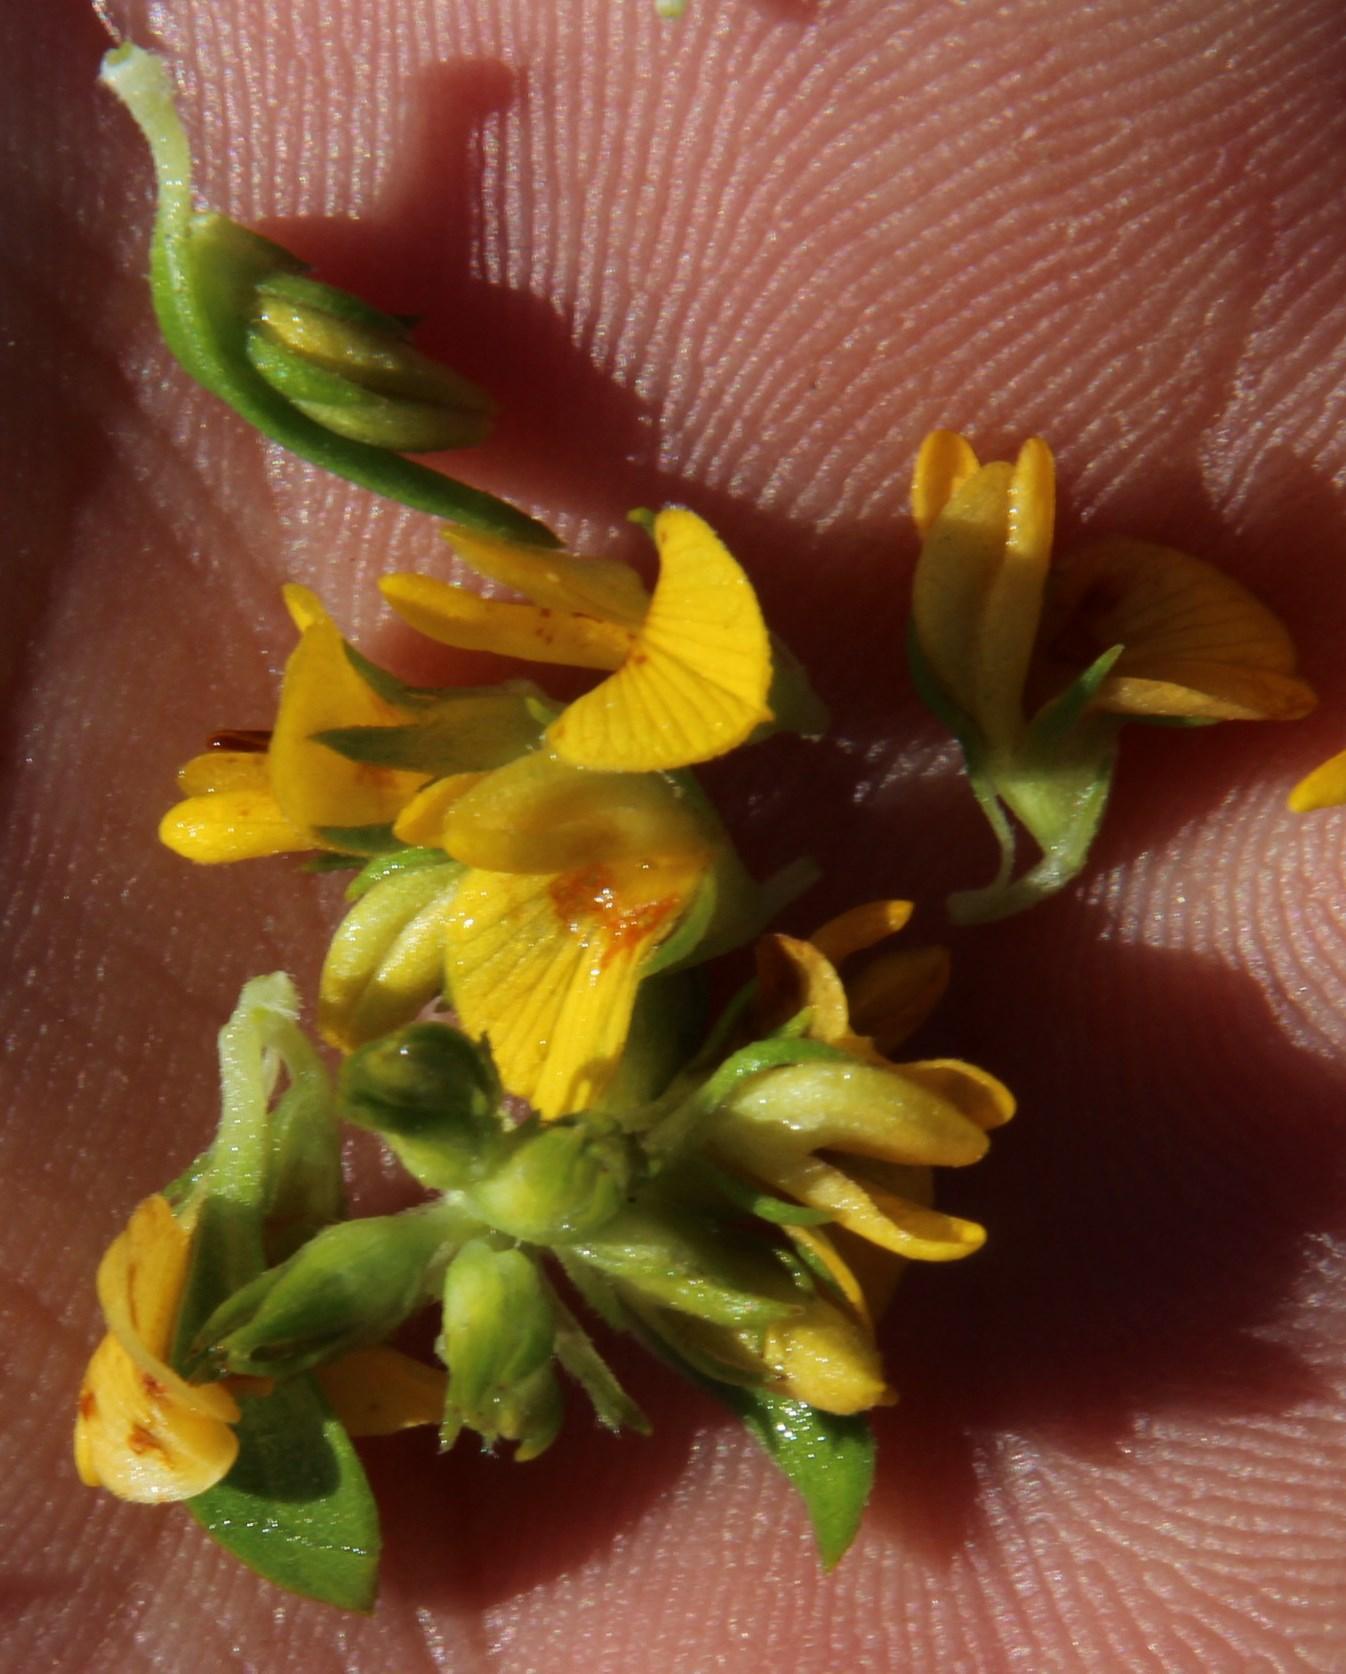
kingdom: Plantae
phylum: Tracheophyta
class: Magnoliopsida
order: Fabales
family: Fabaceae
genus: Aspalathus
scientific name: Aspalathus securifolia
